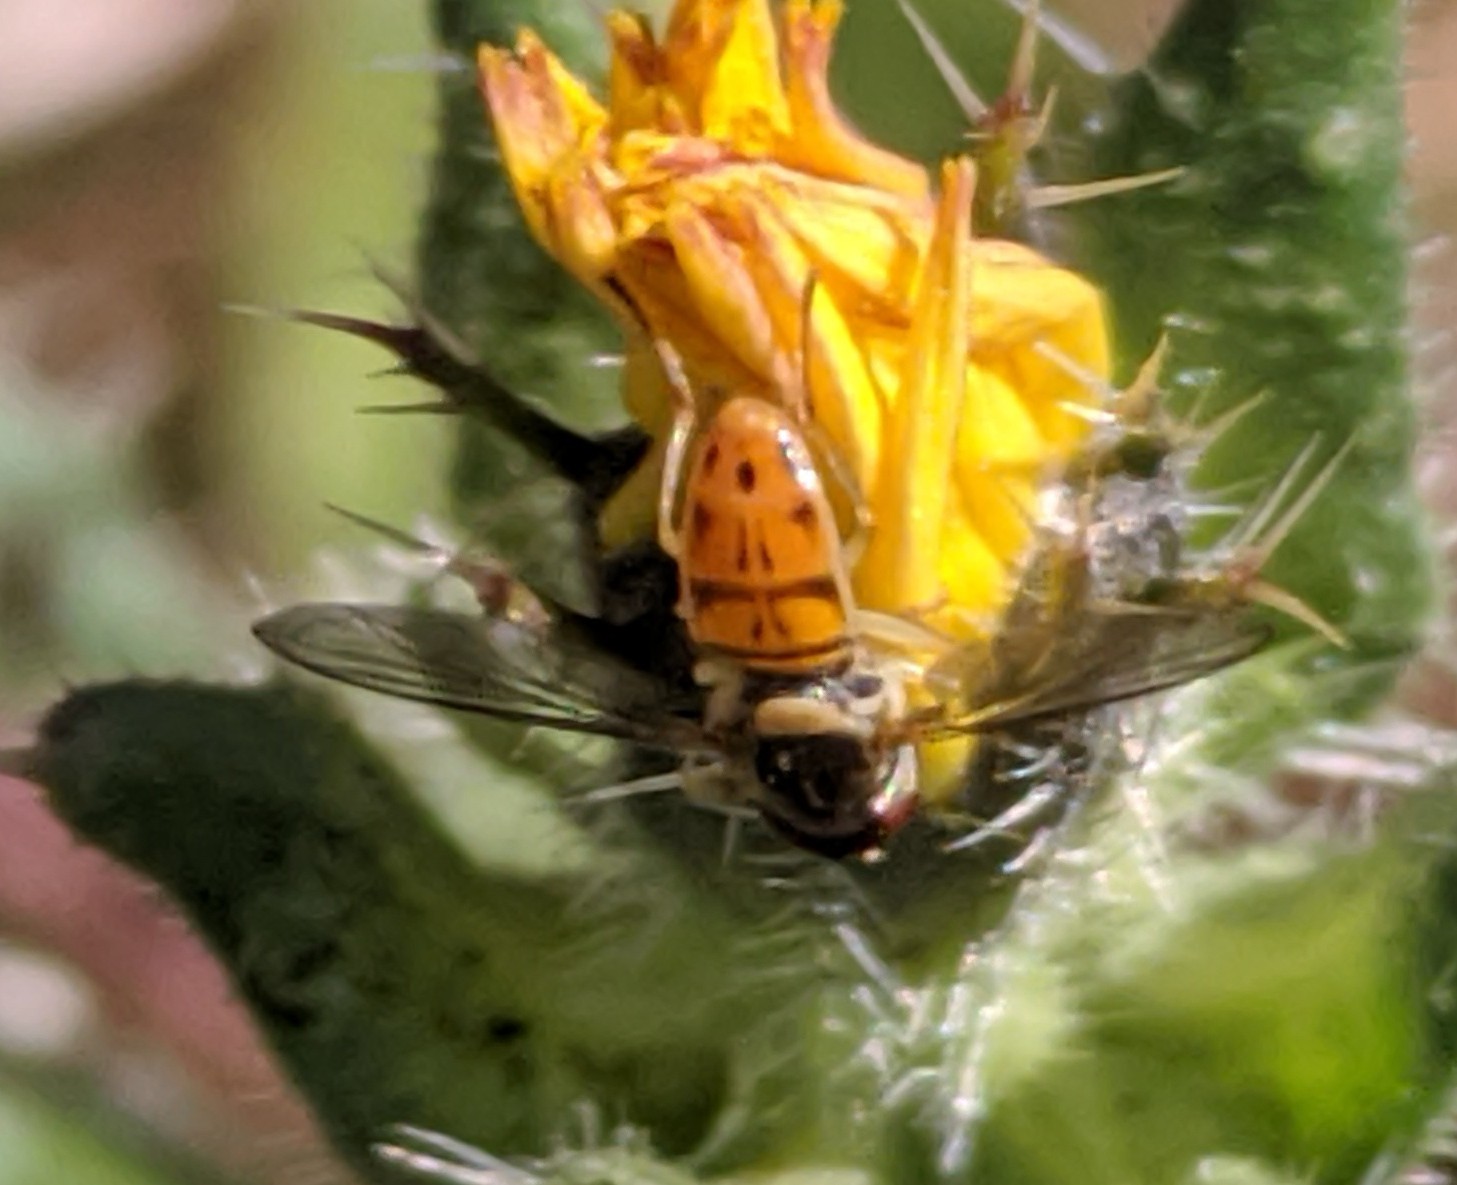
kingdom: Animalia
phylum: Arthropoda
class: Insecta
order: Diptera
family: Syrphidae
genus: Toxomerus
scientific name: Toxomerus marginatus
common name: Syrphid fly
